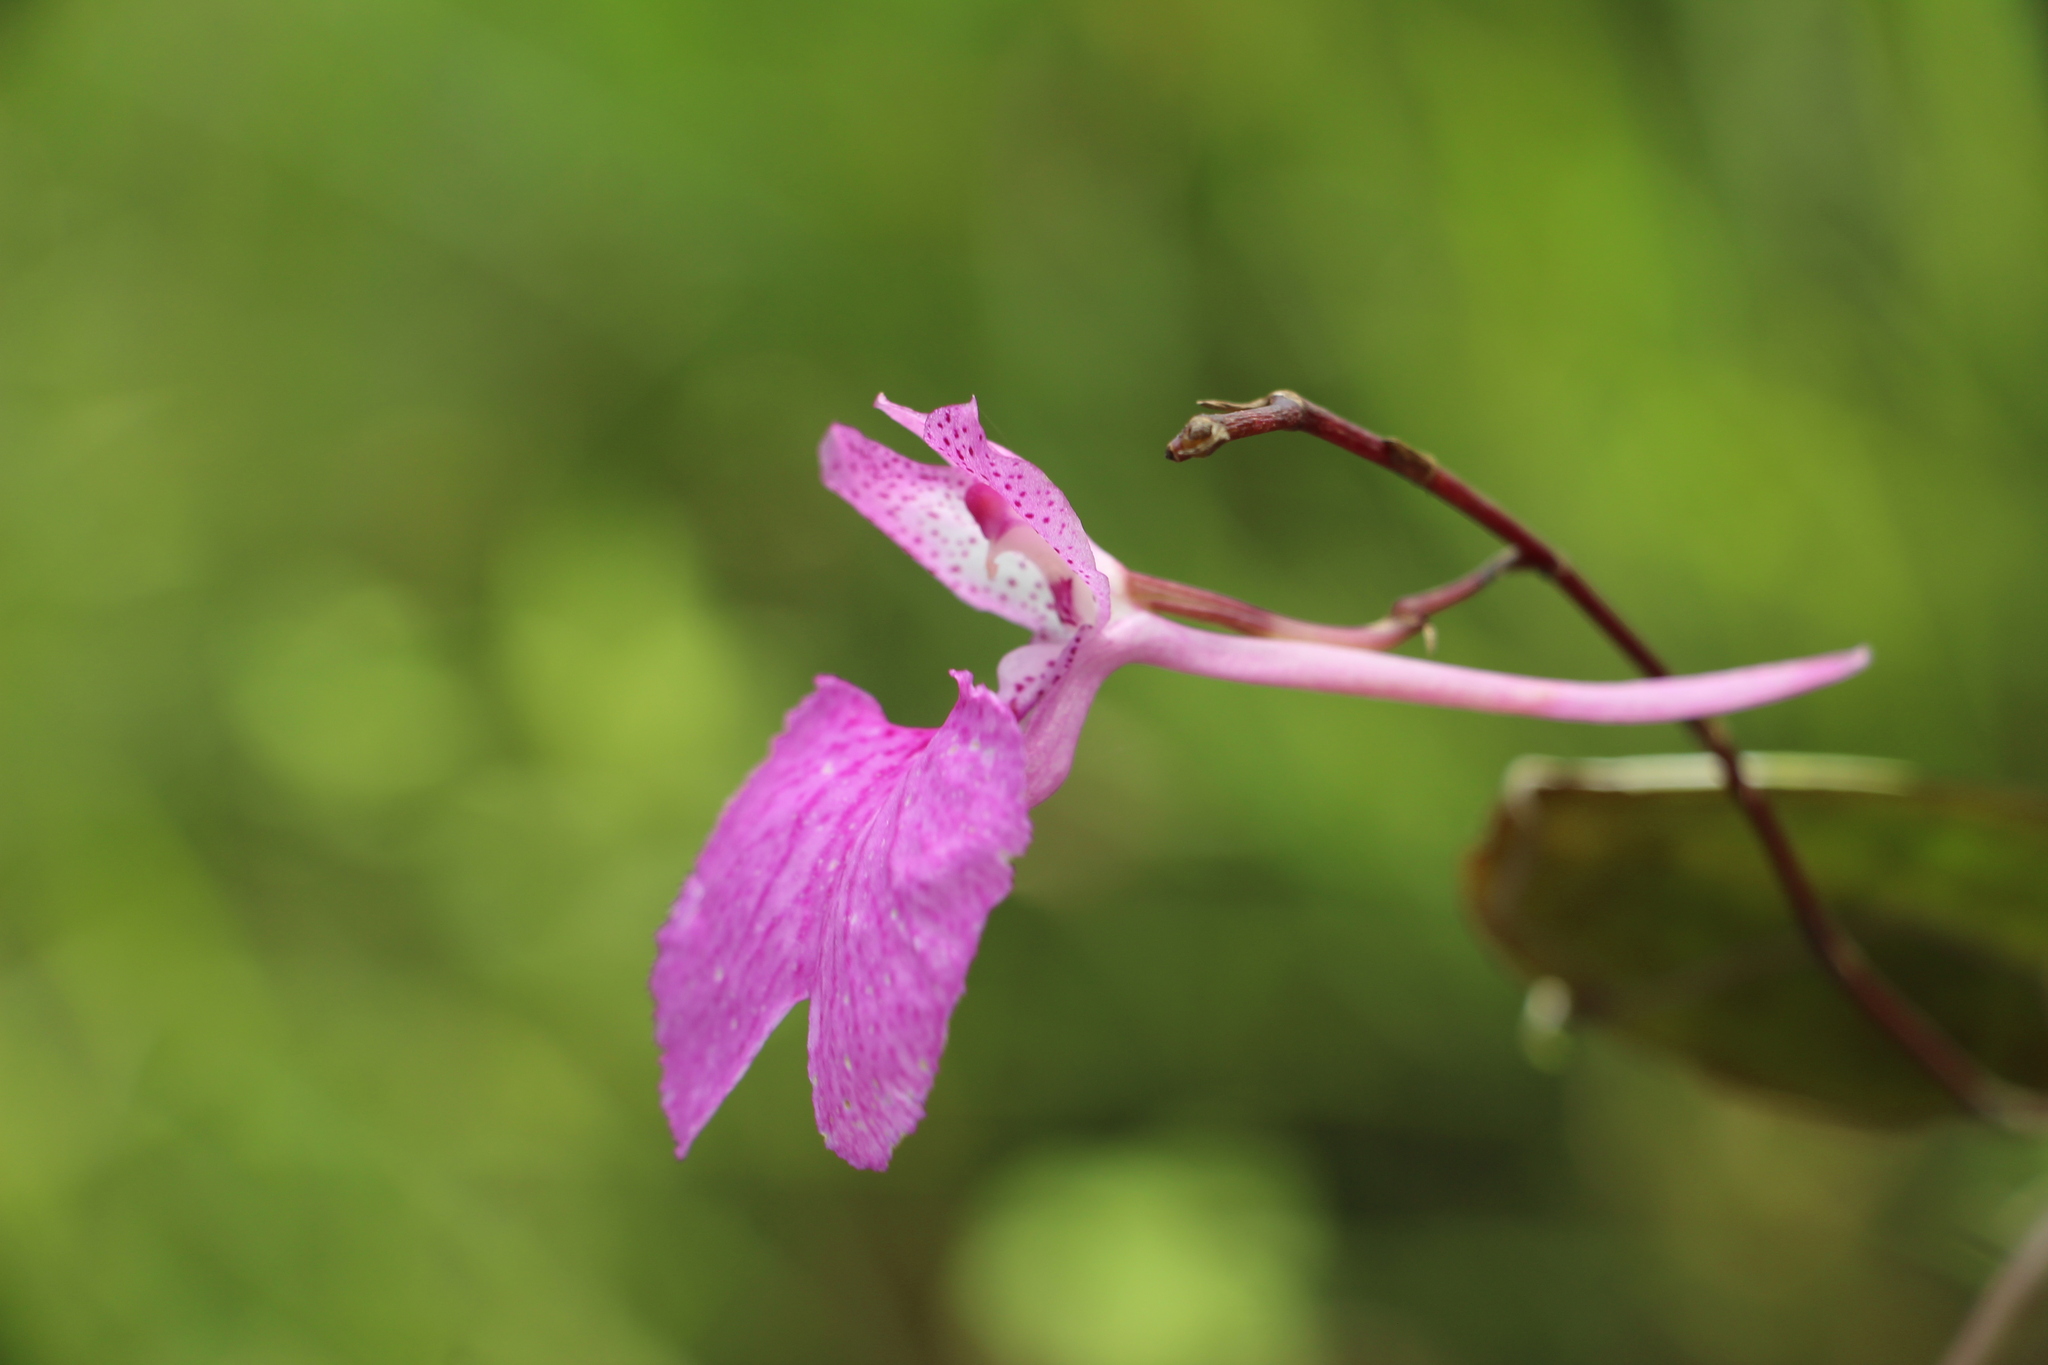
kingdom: Plantae
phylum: Tracheophyta
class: Liliopsida
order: Asparagales
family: Orchidaceae
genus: Comparettia
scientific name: Comparettia macroplectron
